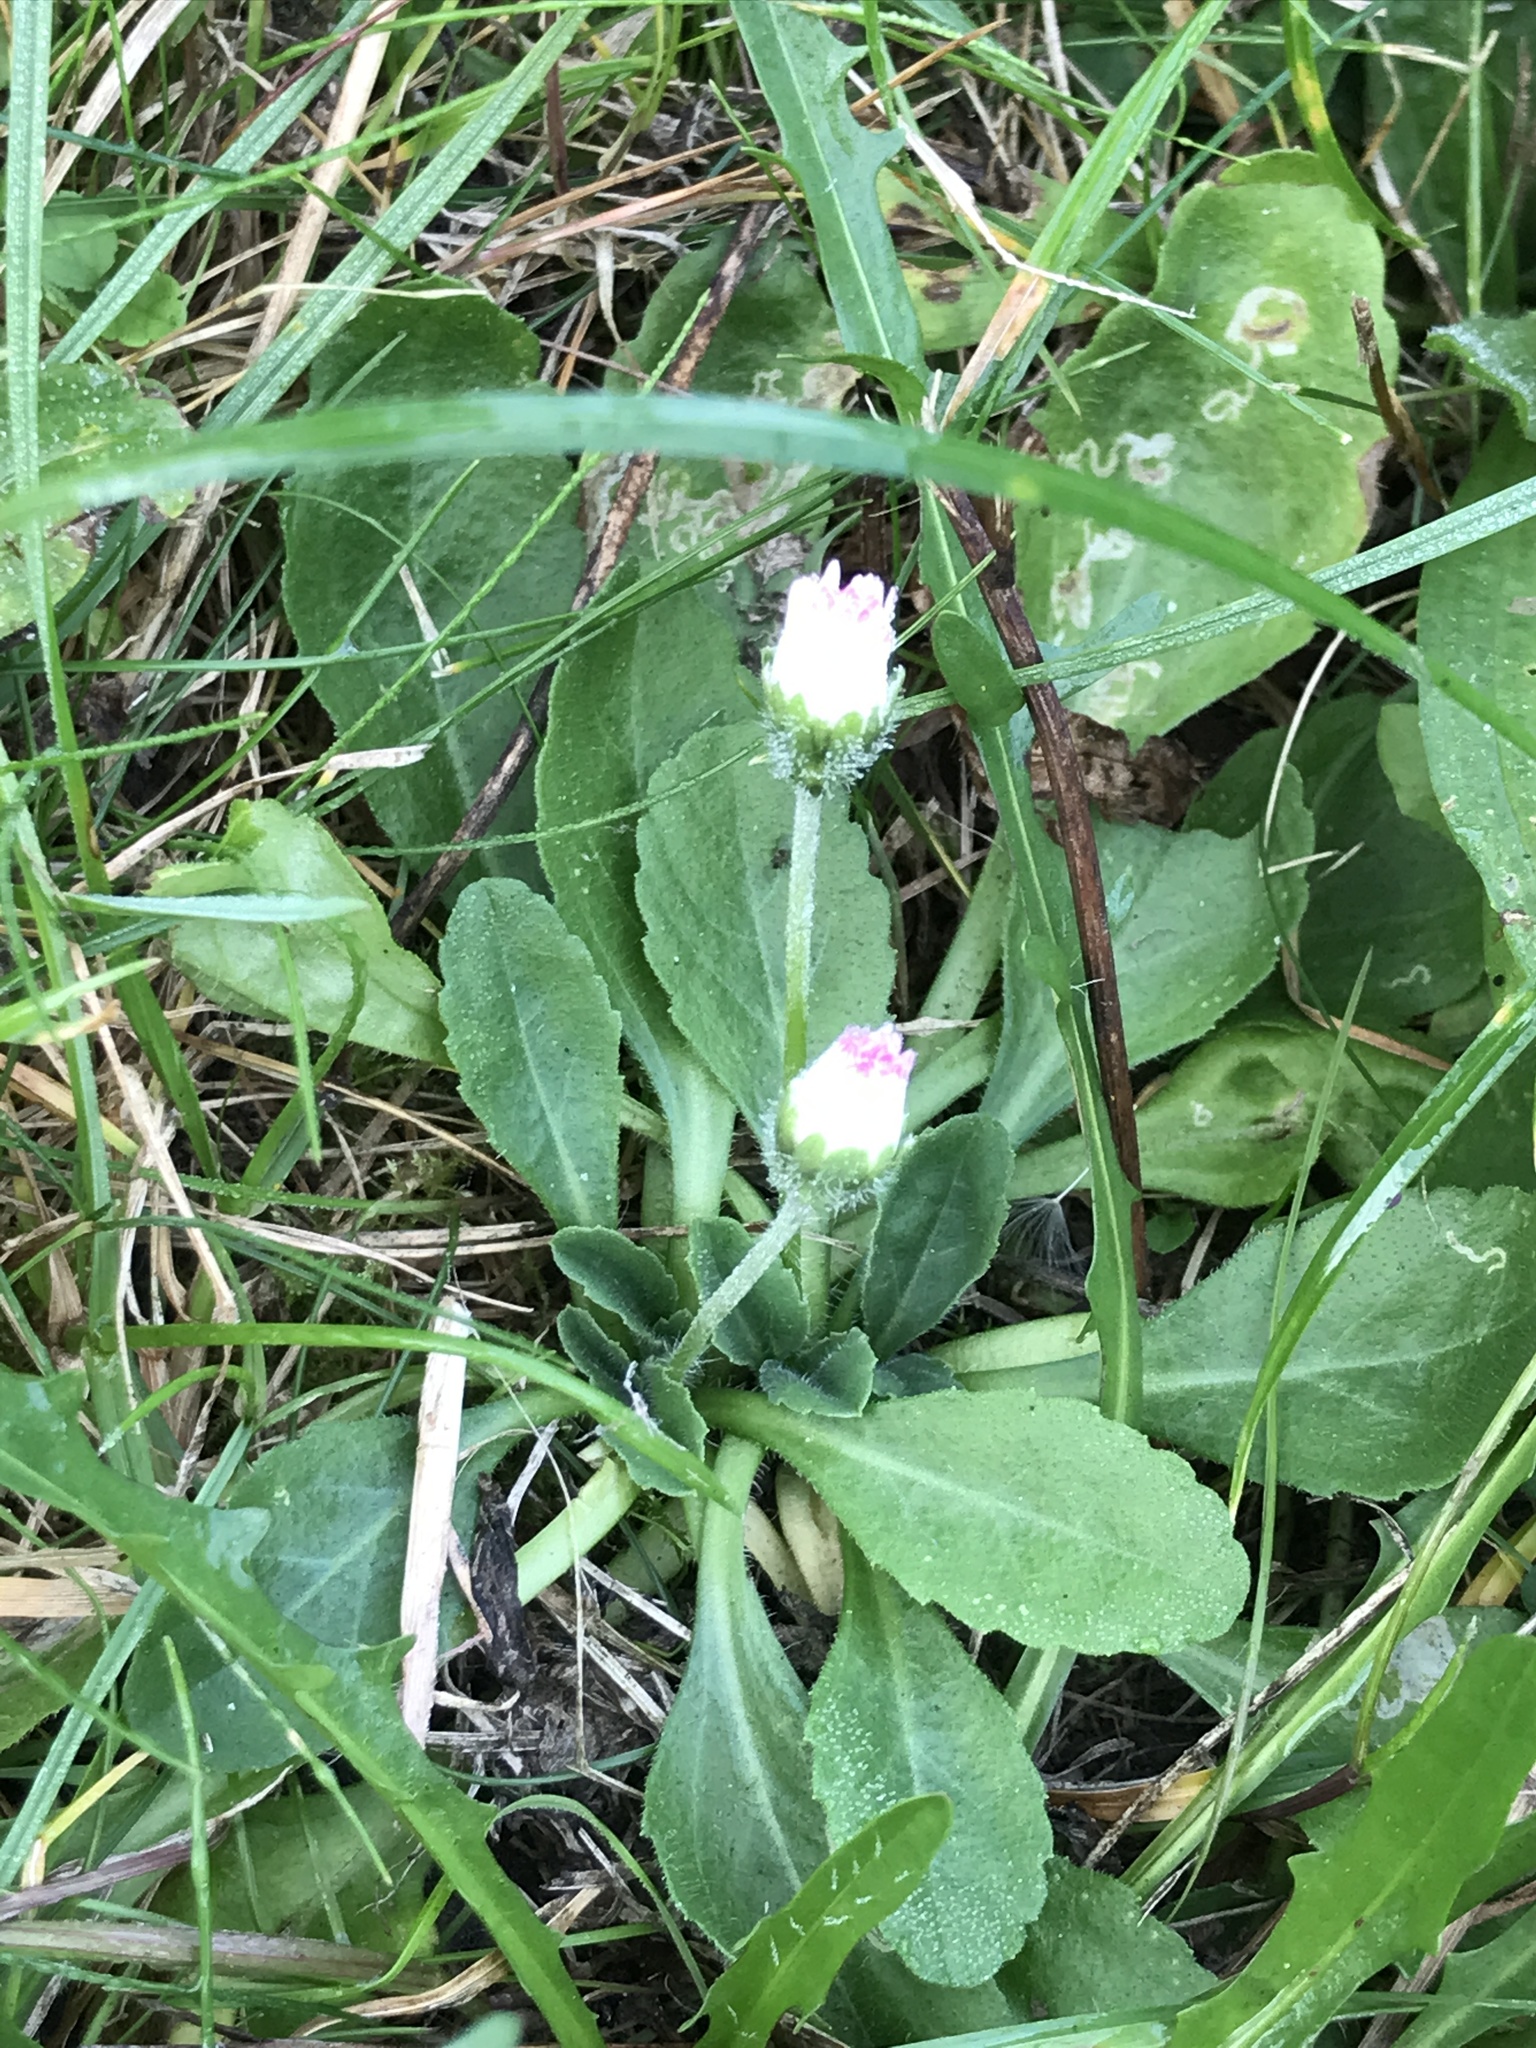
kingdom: Plantae
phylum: Tracheophyta
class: Magnoliopsida
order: Asterales
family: Asteraceae
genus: Bellis
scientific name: Bellis perennis
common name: Lawndaisy
